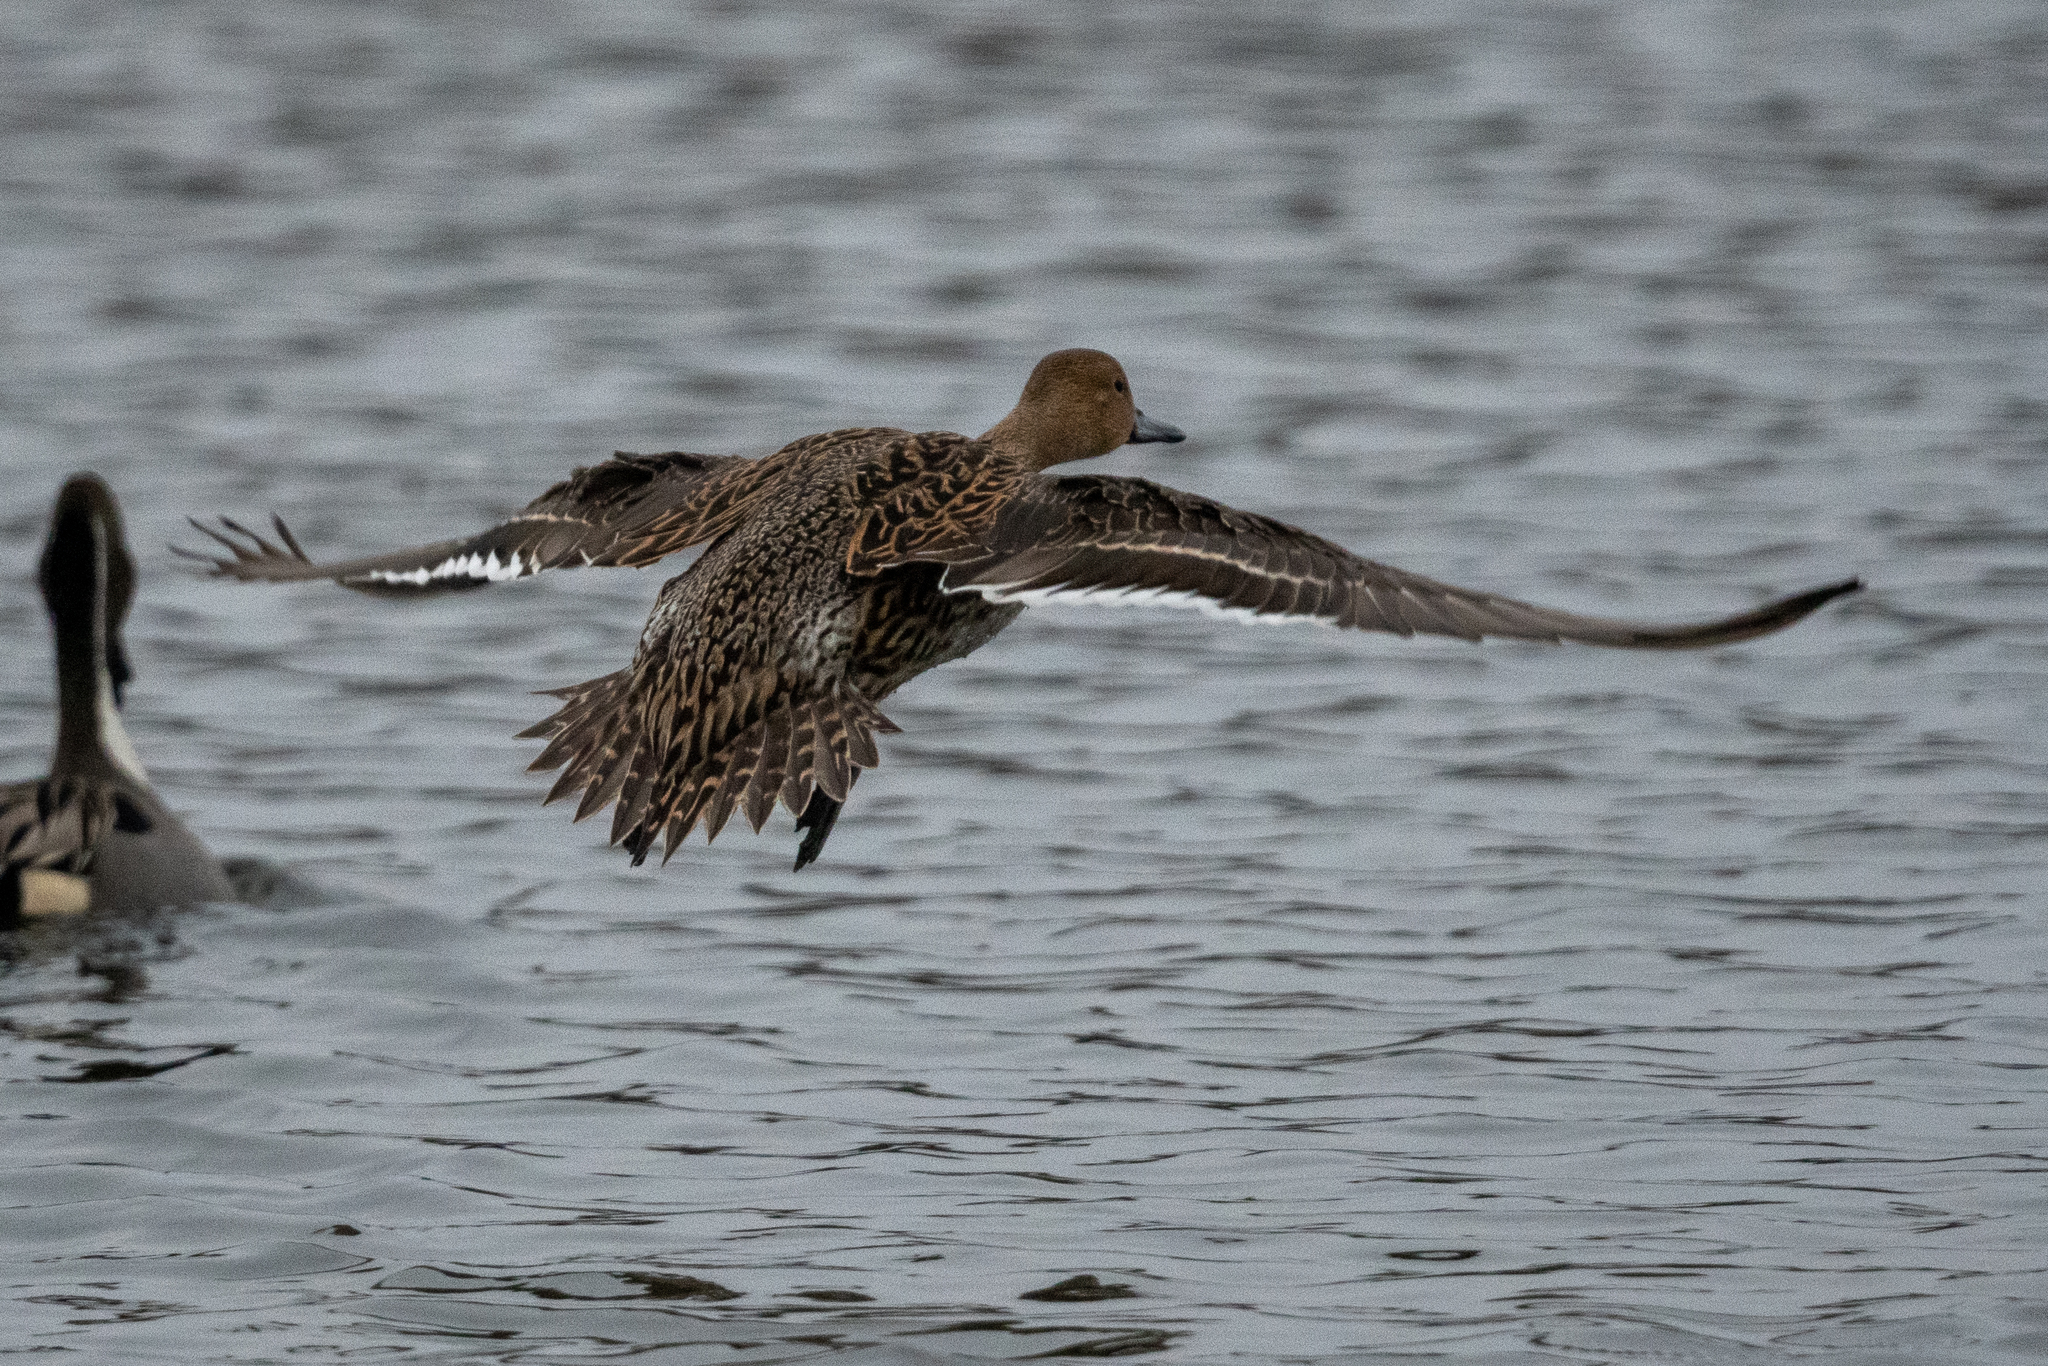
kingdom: Animalia
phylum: Chordata
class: Aves
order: Anseriformes
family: Anatidae
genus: Anas
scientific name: Anas acuta
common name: Northern pintail
